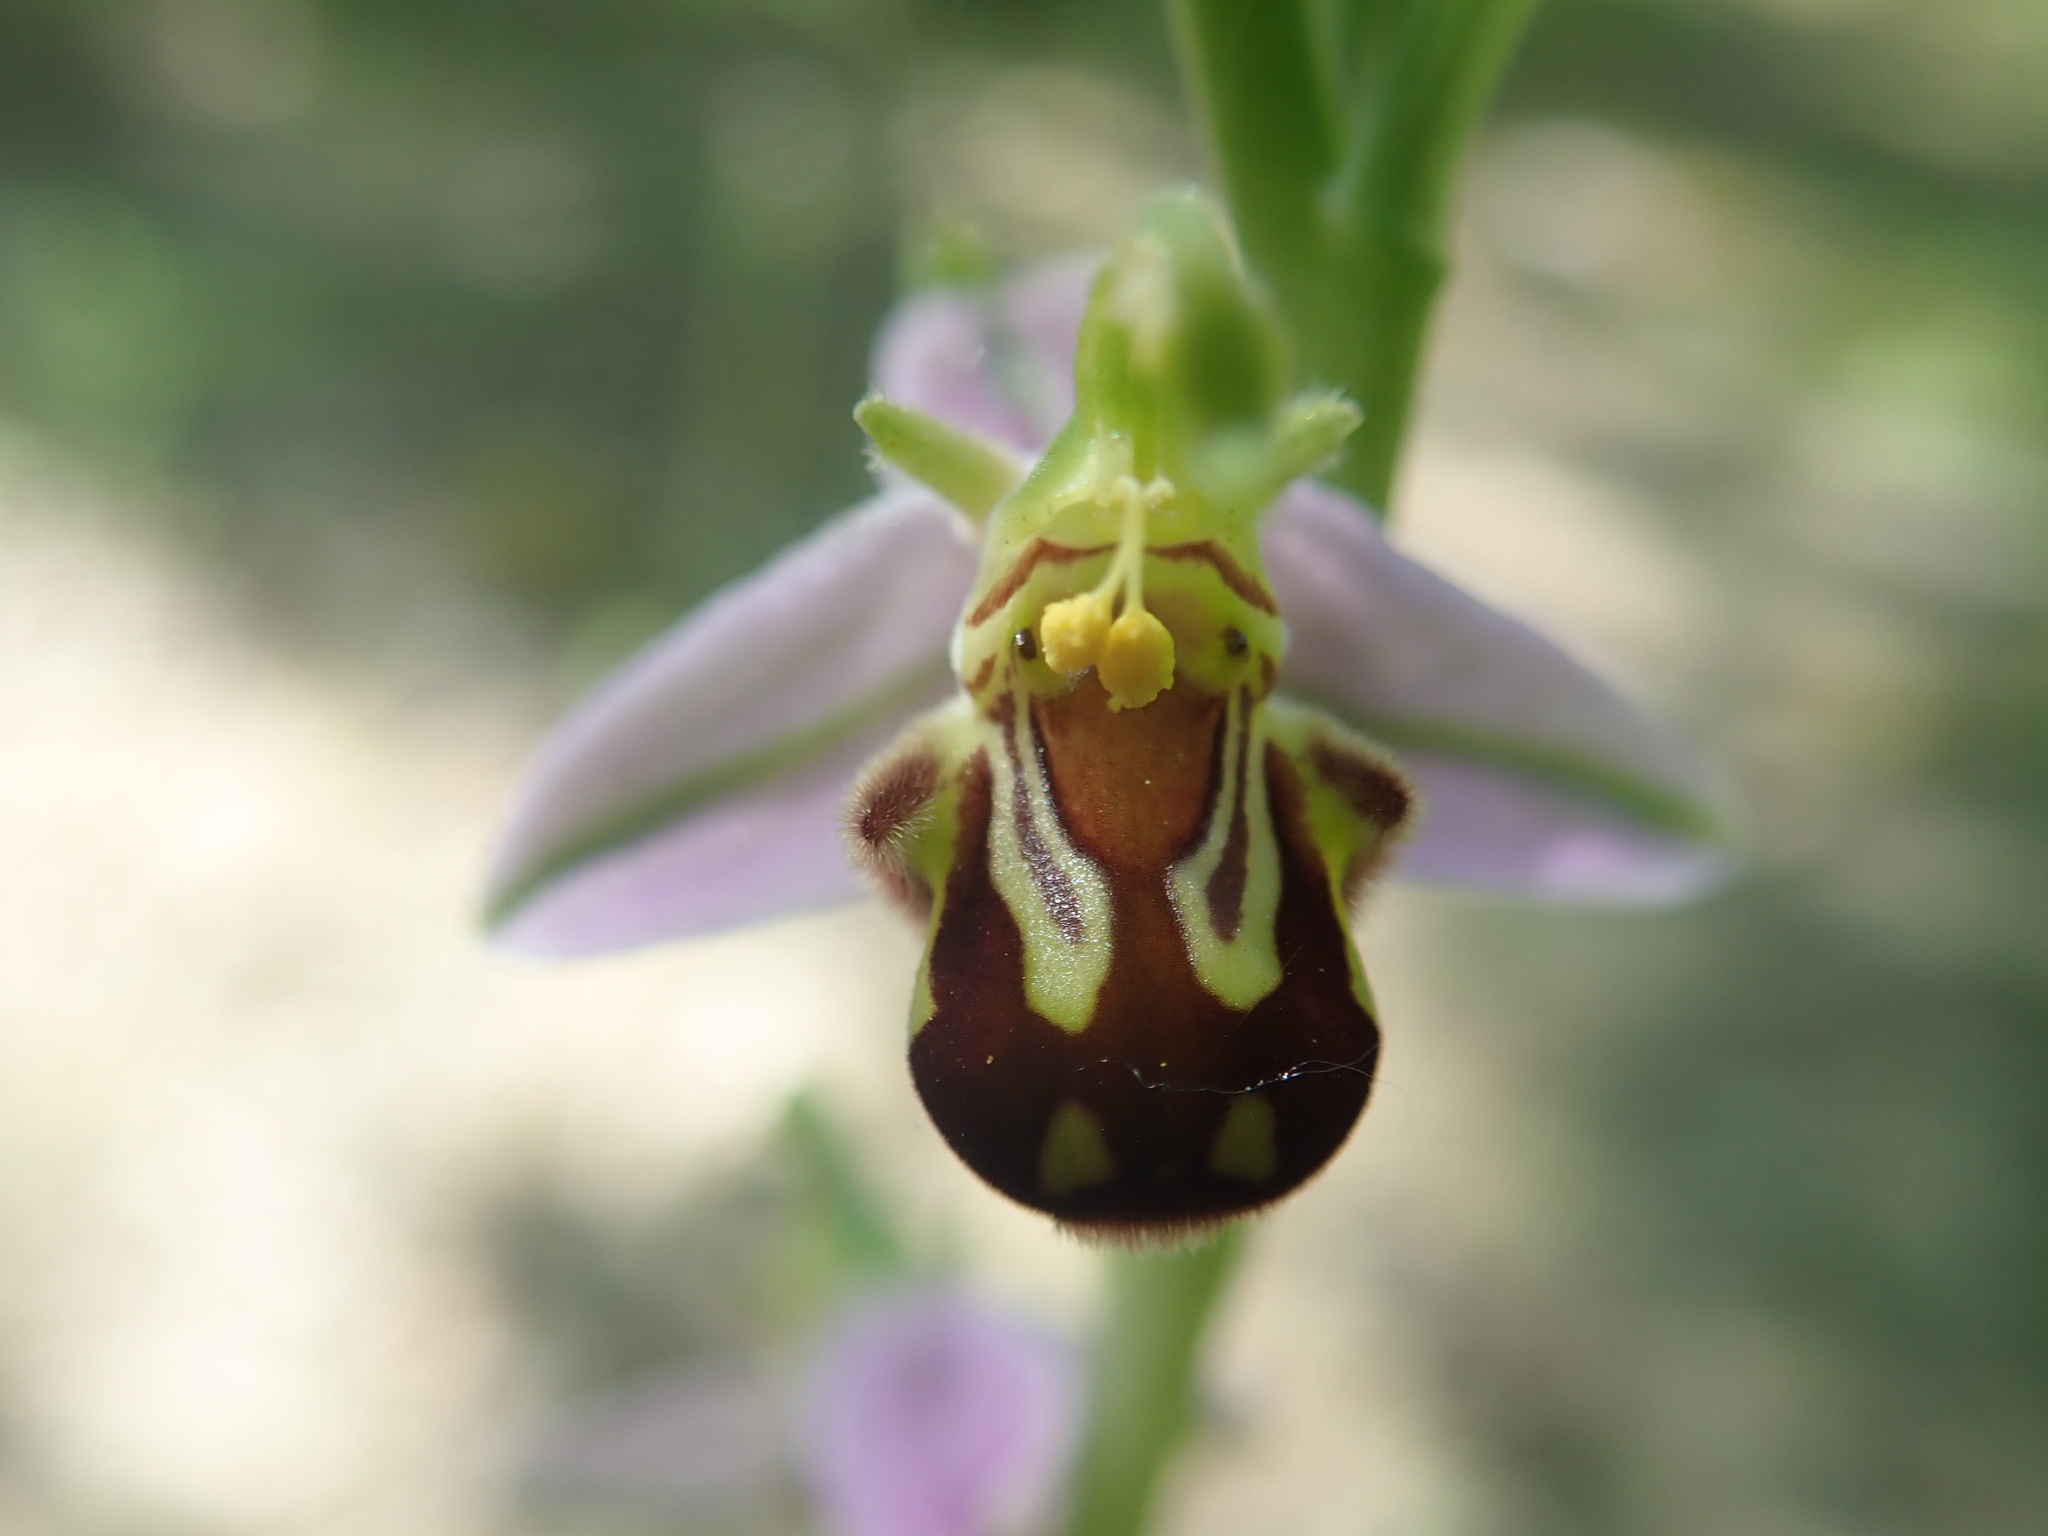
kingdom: Plantae
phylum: Tracheophyta
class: Liliopsida
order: Asparagales
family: Orchidaceae
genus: Ophrys
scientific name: Ophrys apifera
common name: Bee orchid
